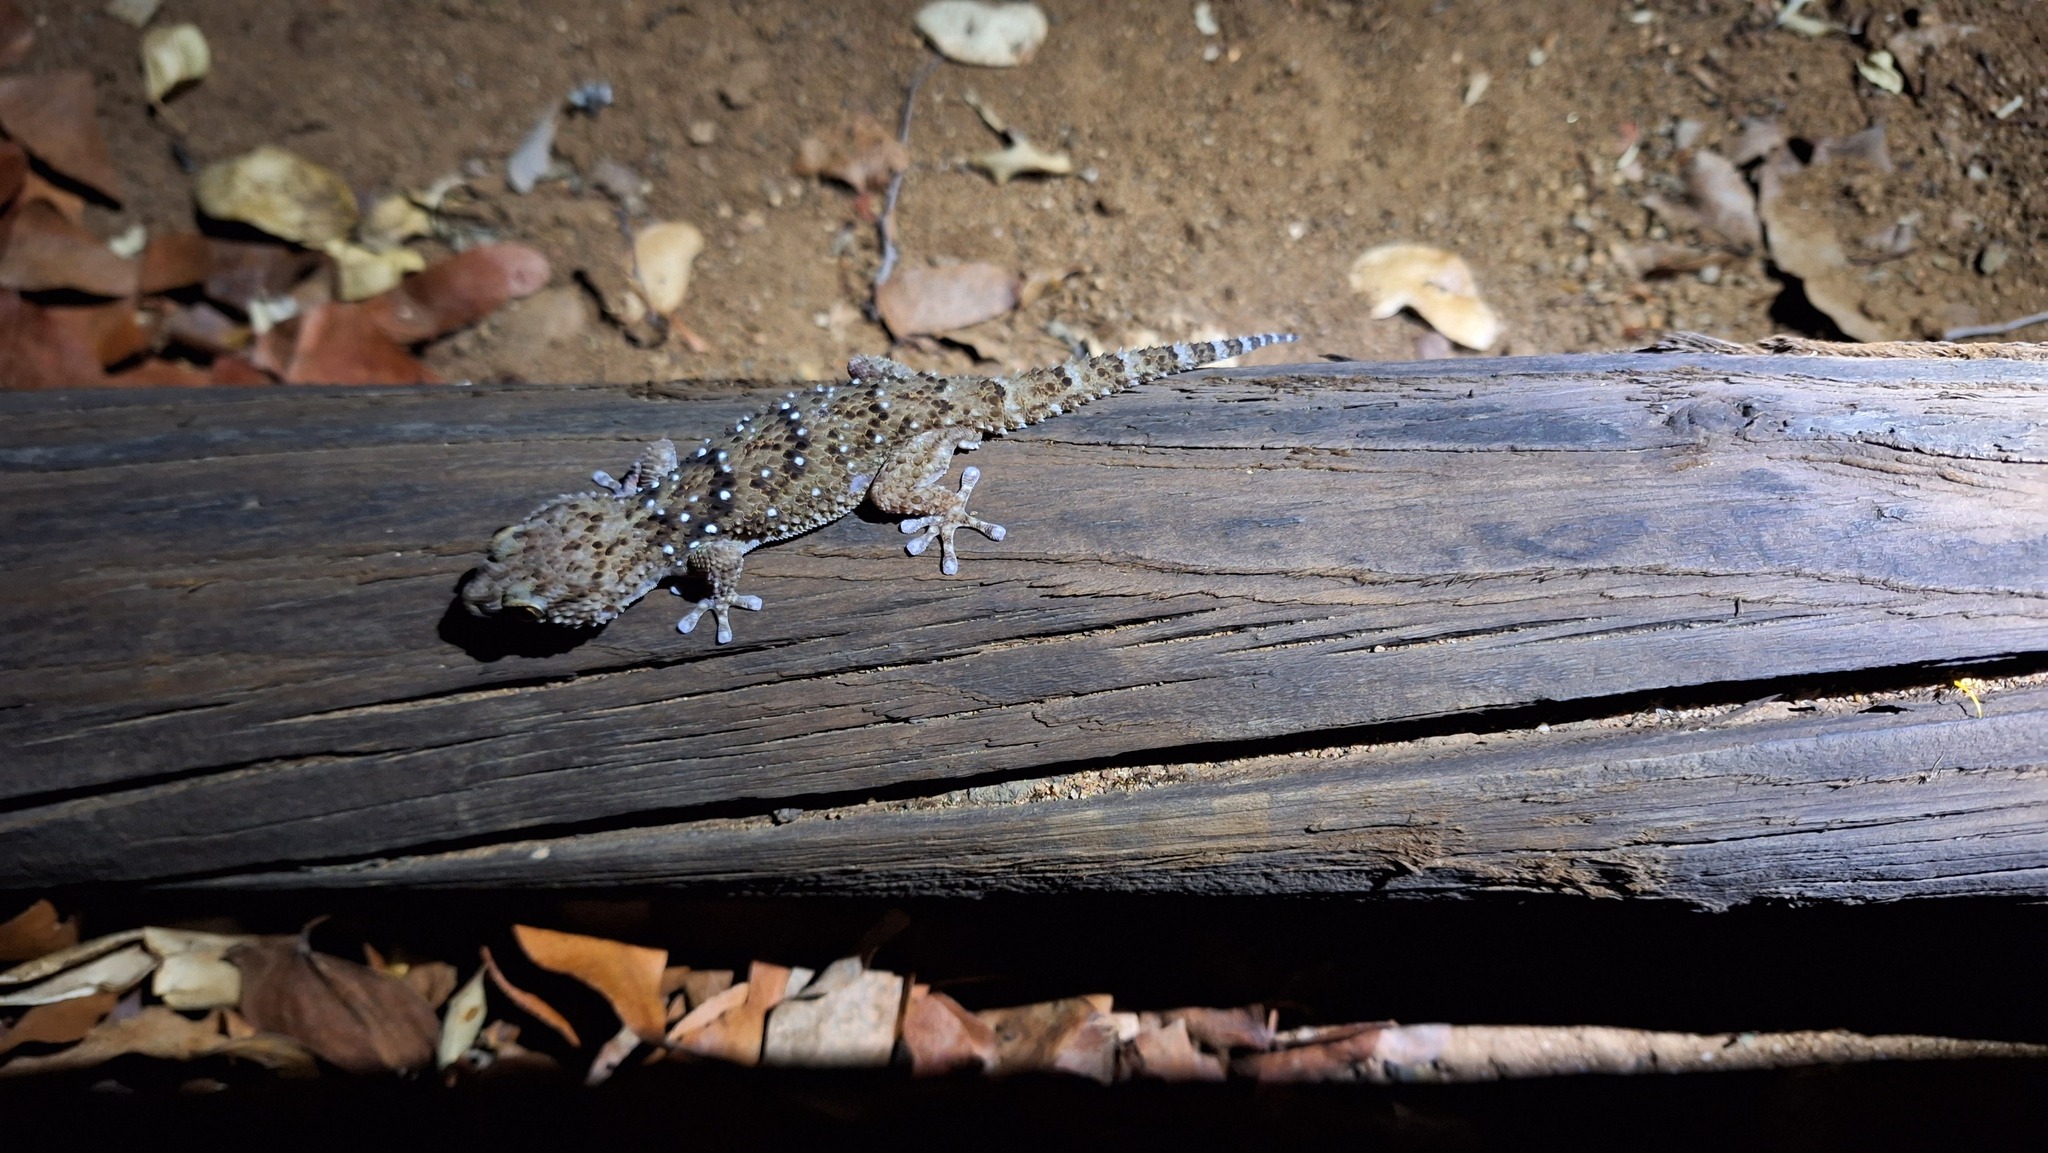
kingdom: Animalia
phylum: Chordata
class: Squamata
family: Gekkonidae
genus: Chondrodactylus
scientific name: Chondrodactylus turneri
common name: Turner’s gecko
